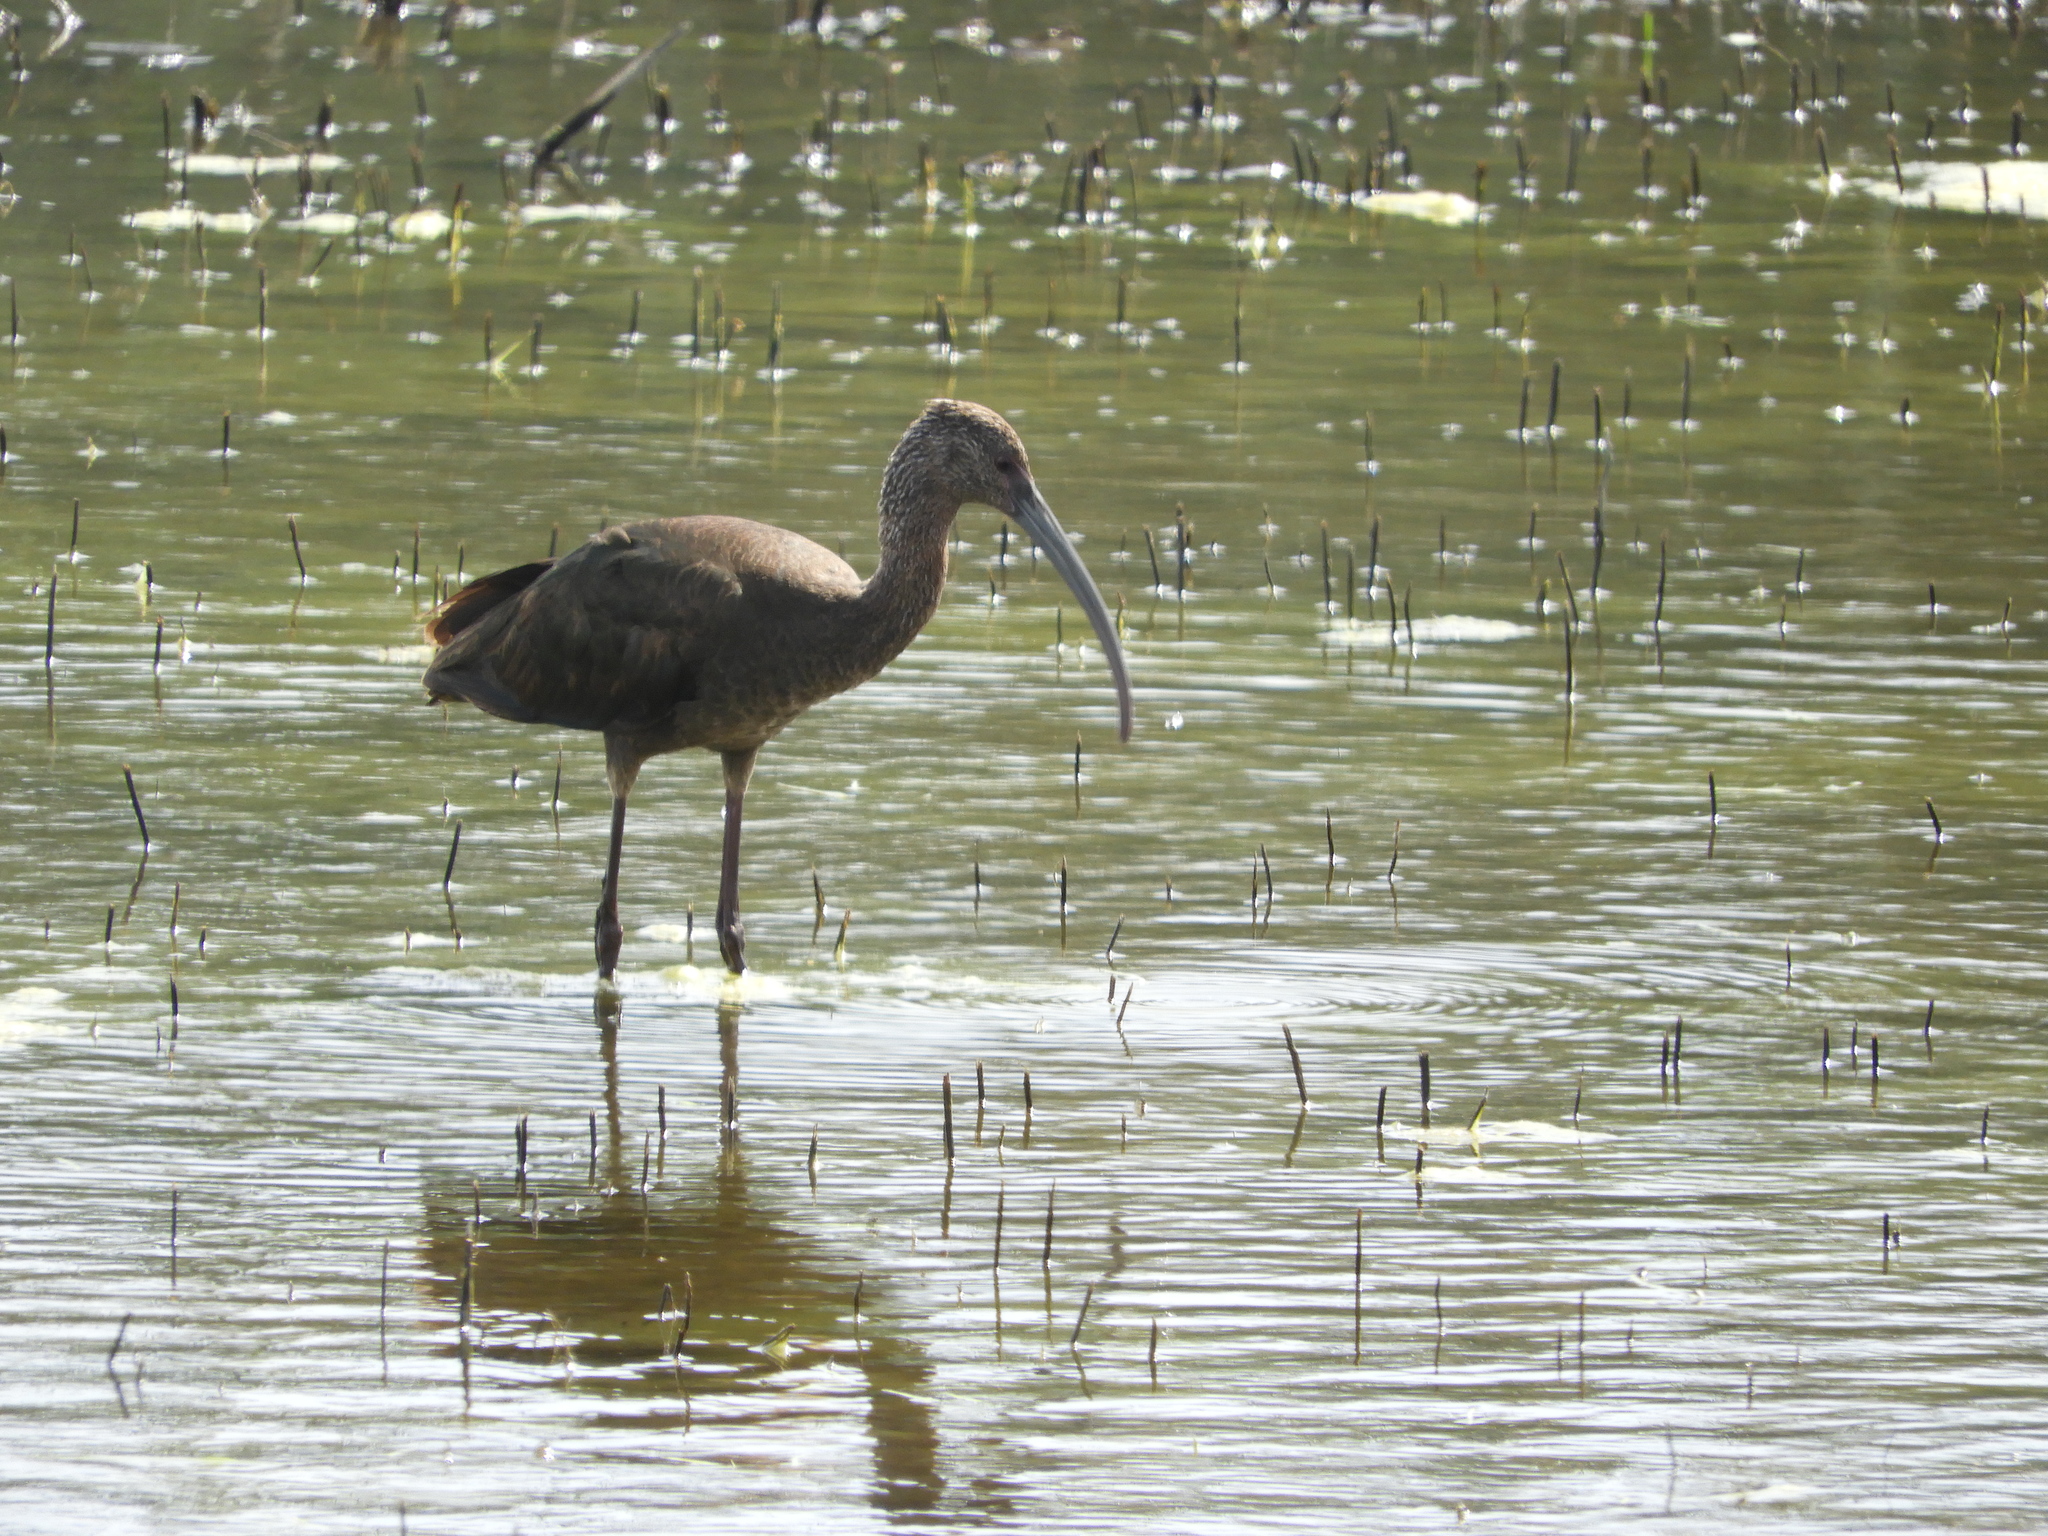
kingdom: Animalia
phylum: Chordata
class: Aves
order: Pelecaniformes
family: Threskiornithidae
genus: Plegadis
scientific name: Plegadis chihi
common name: White-faced ibis
